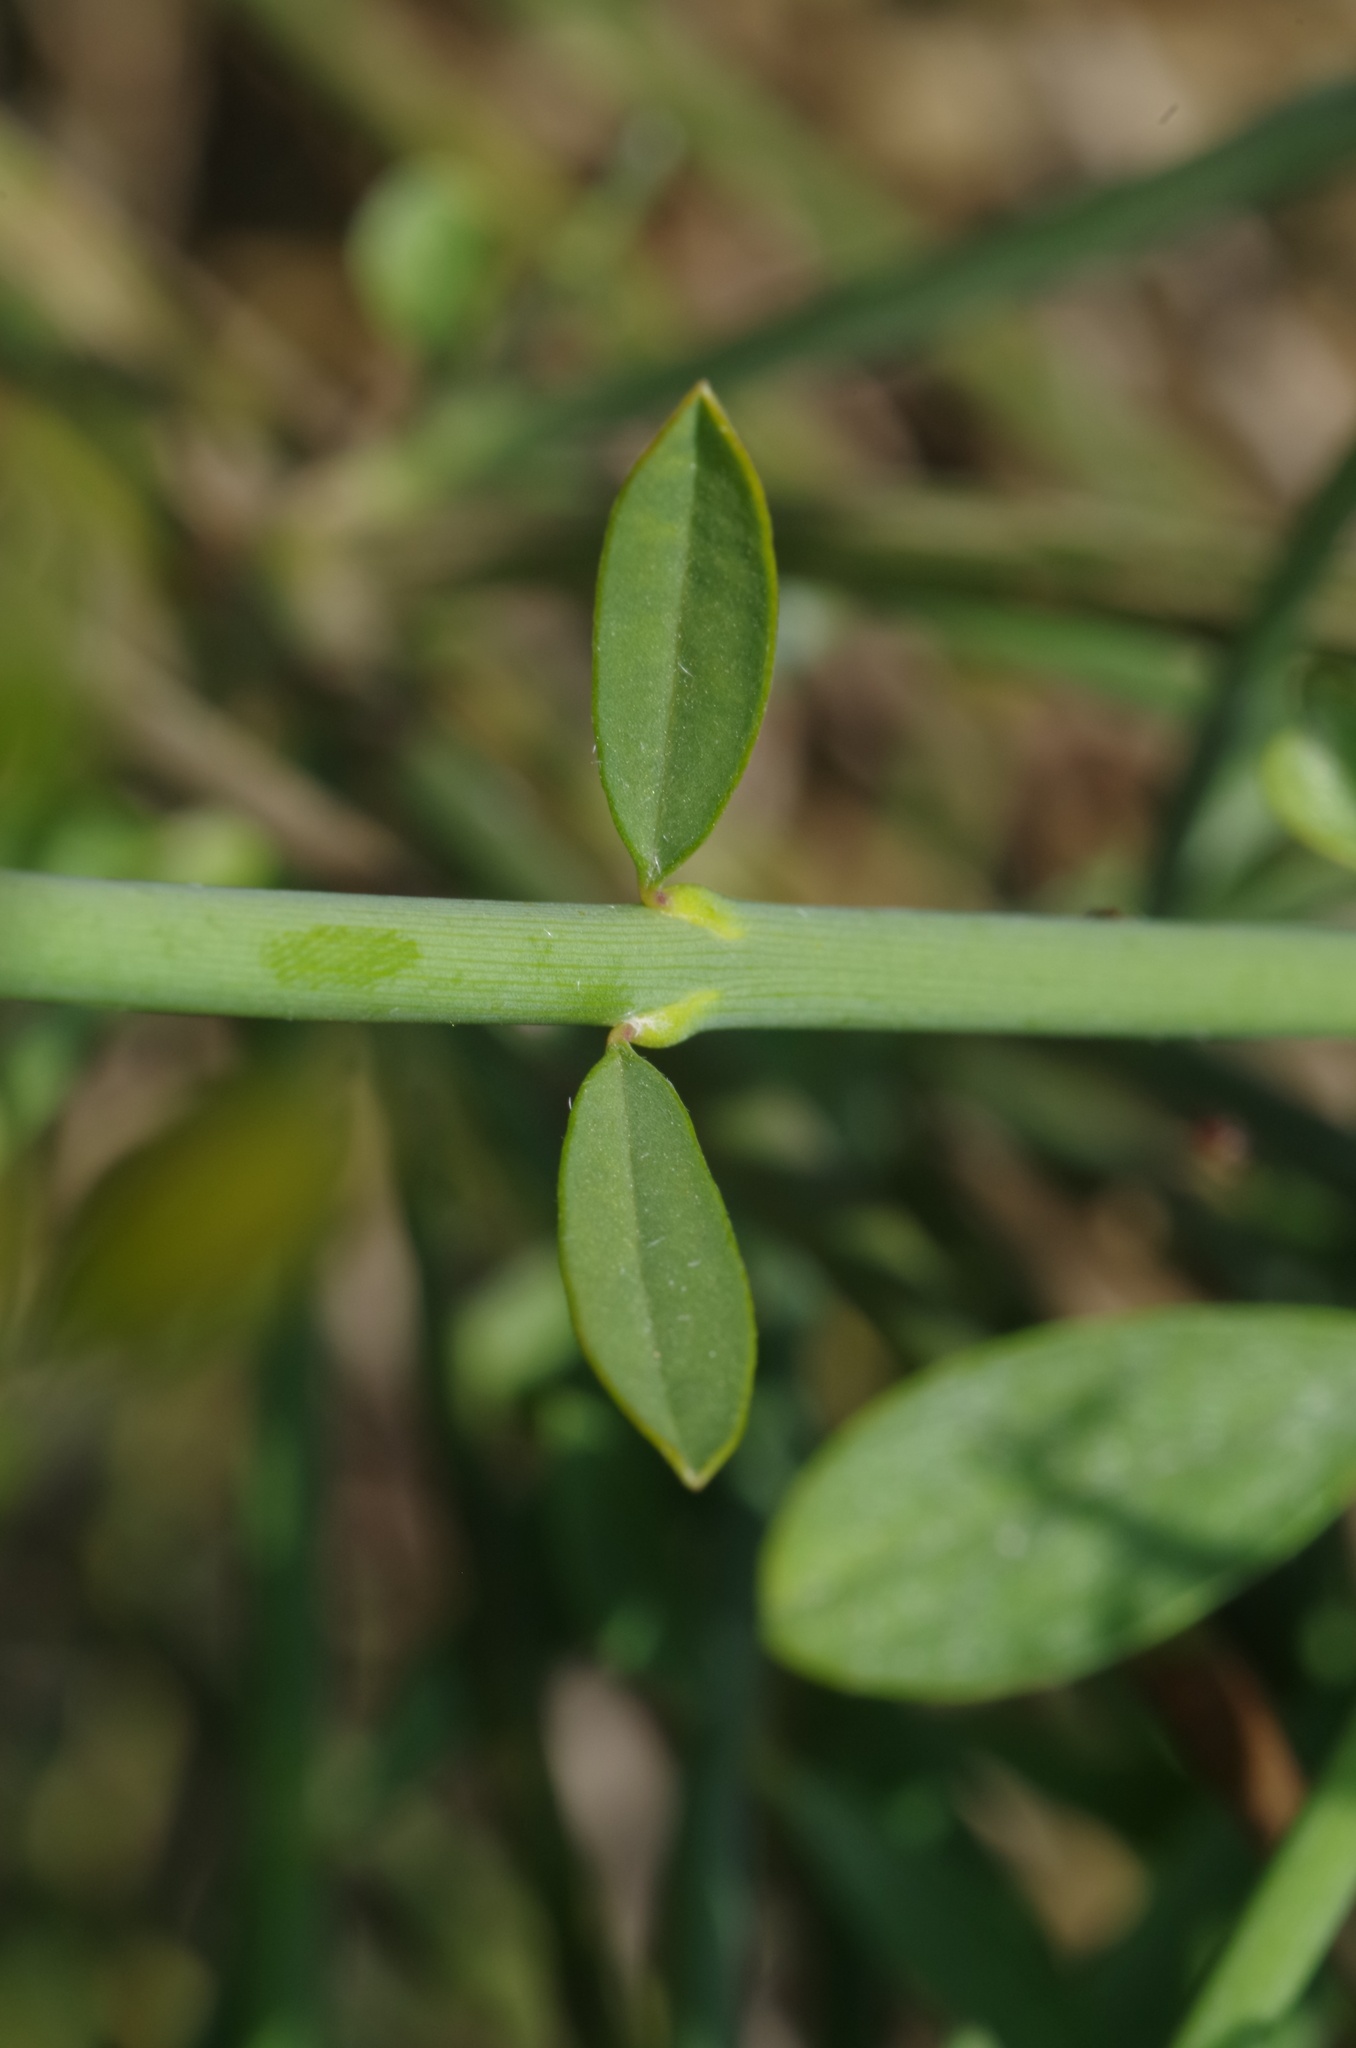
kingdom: Plantae
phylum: Tracheophyta
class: Magnoliopsida
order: Fabales
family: Fabaceae
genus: Spartium
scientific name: Spartium junceum
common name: Spanish broom
